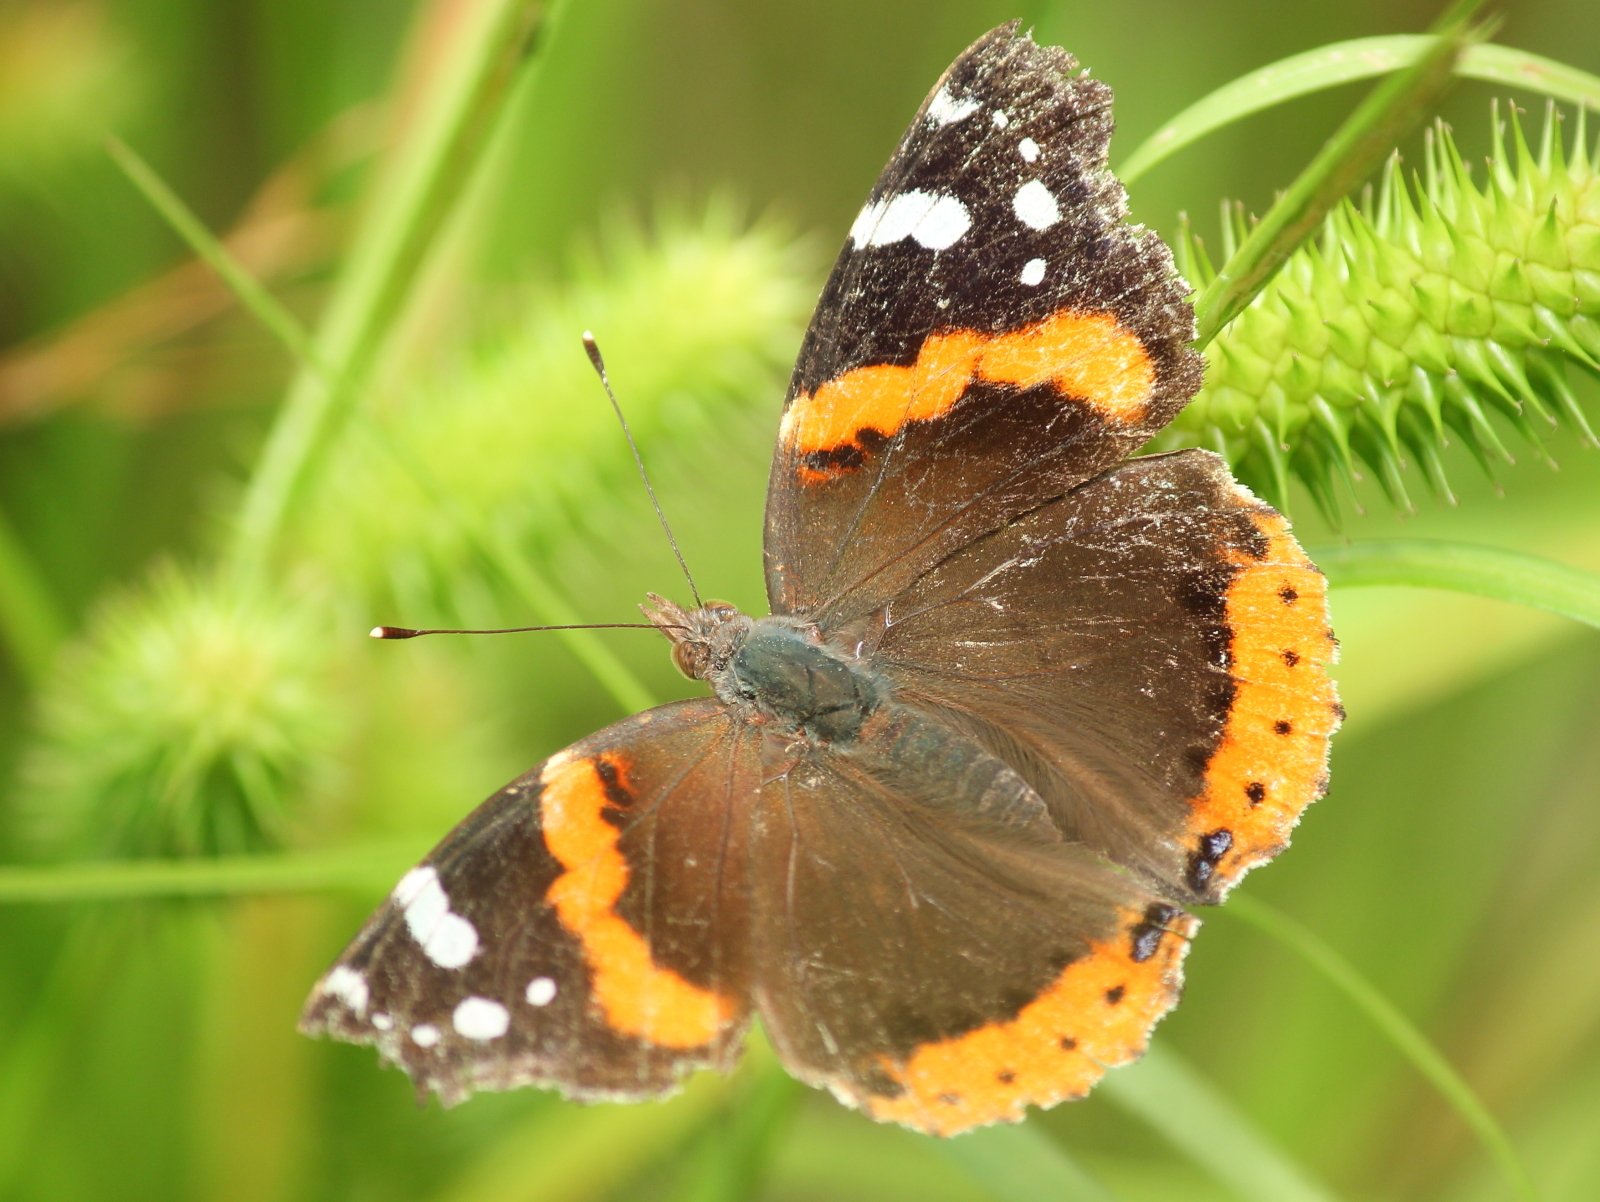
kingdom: Animalia
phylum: Arthropoda
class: Insecta
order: Lepidoptera
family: Nymphalidae
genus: Vanessa
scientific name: Vanessa atalanta
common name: Red admiral
